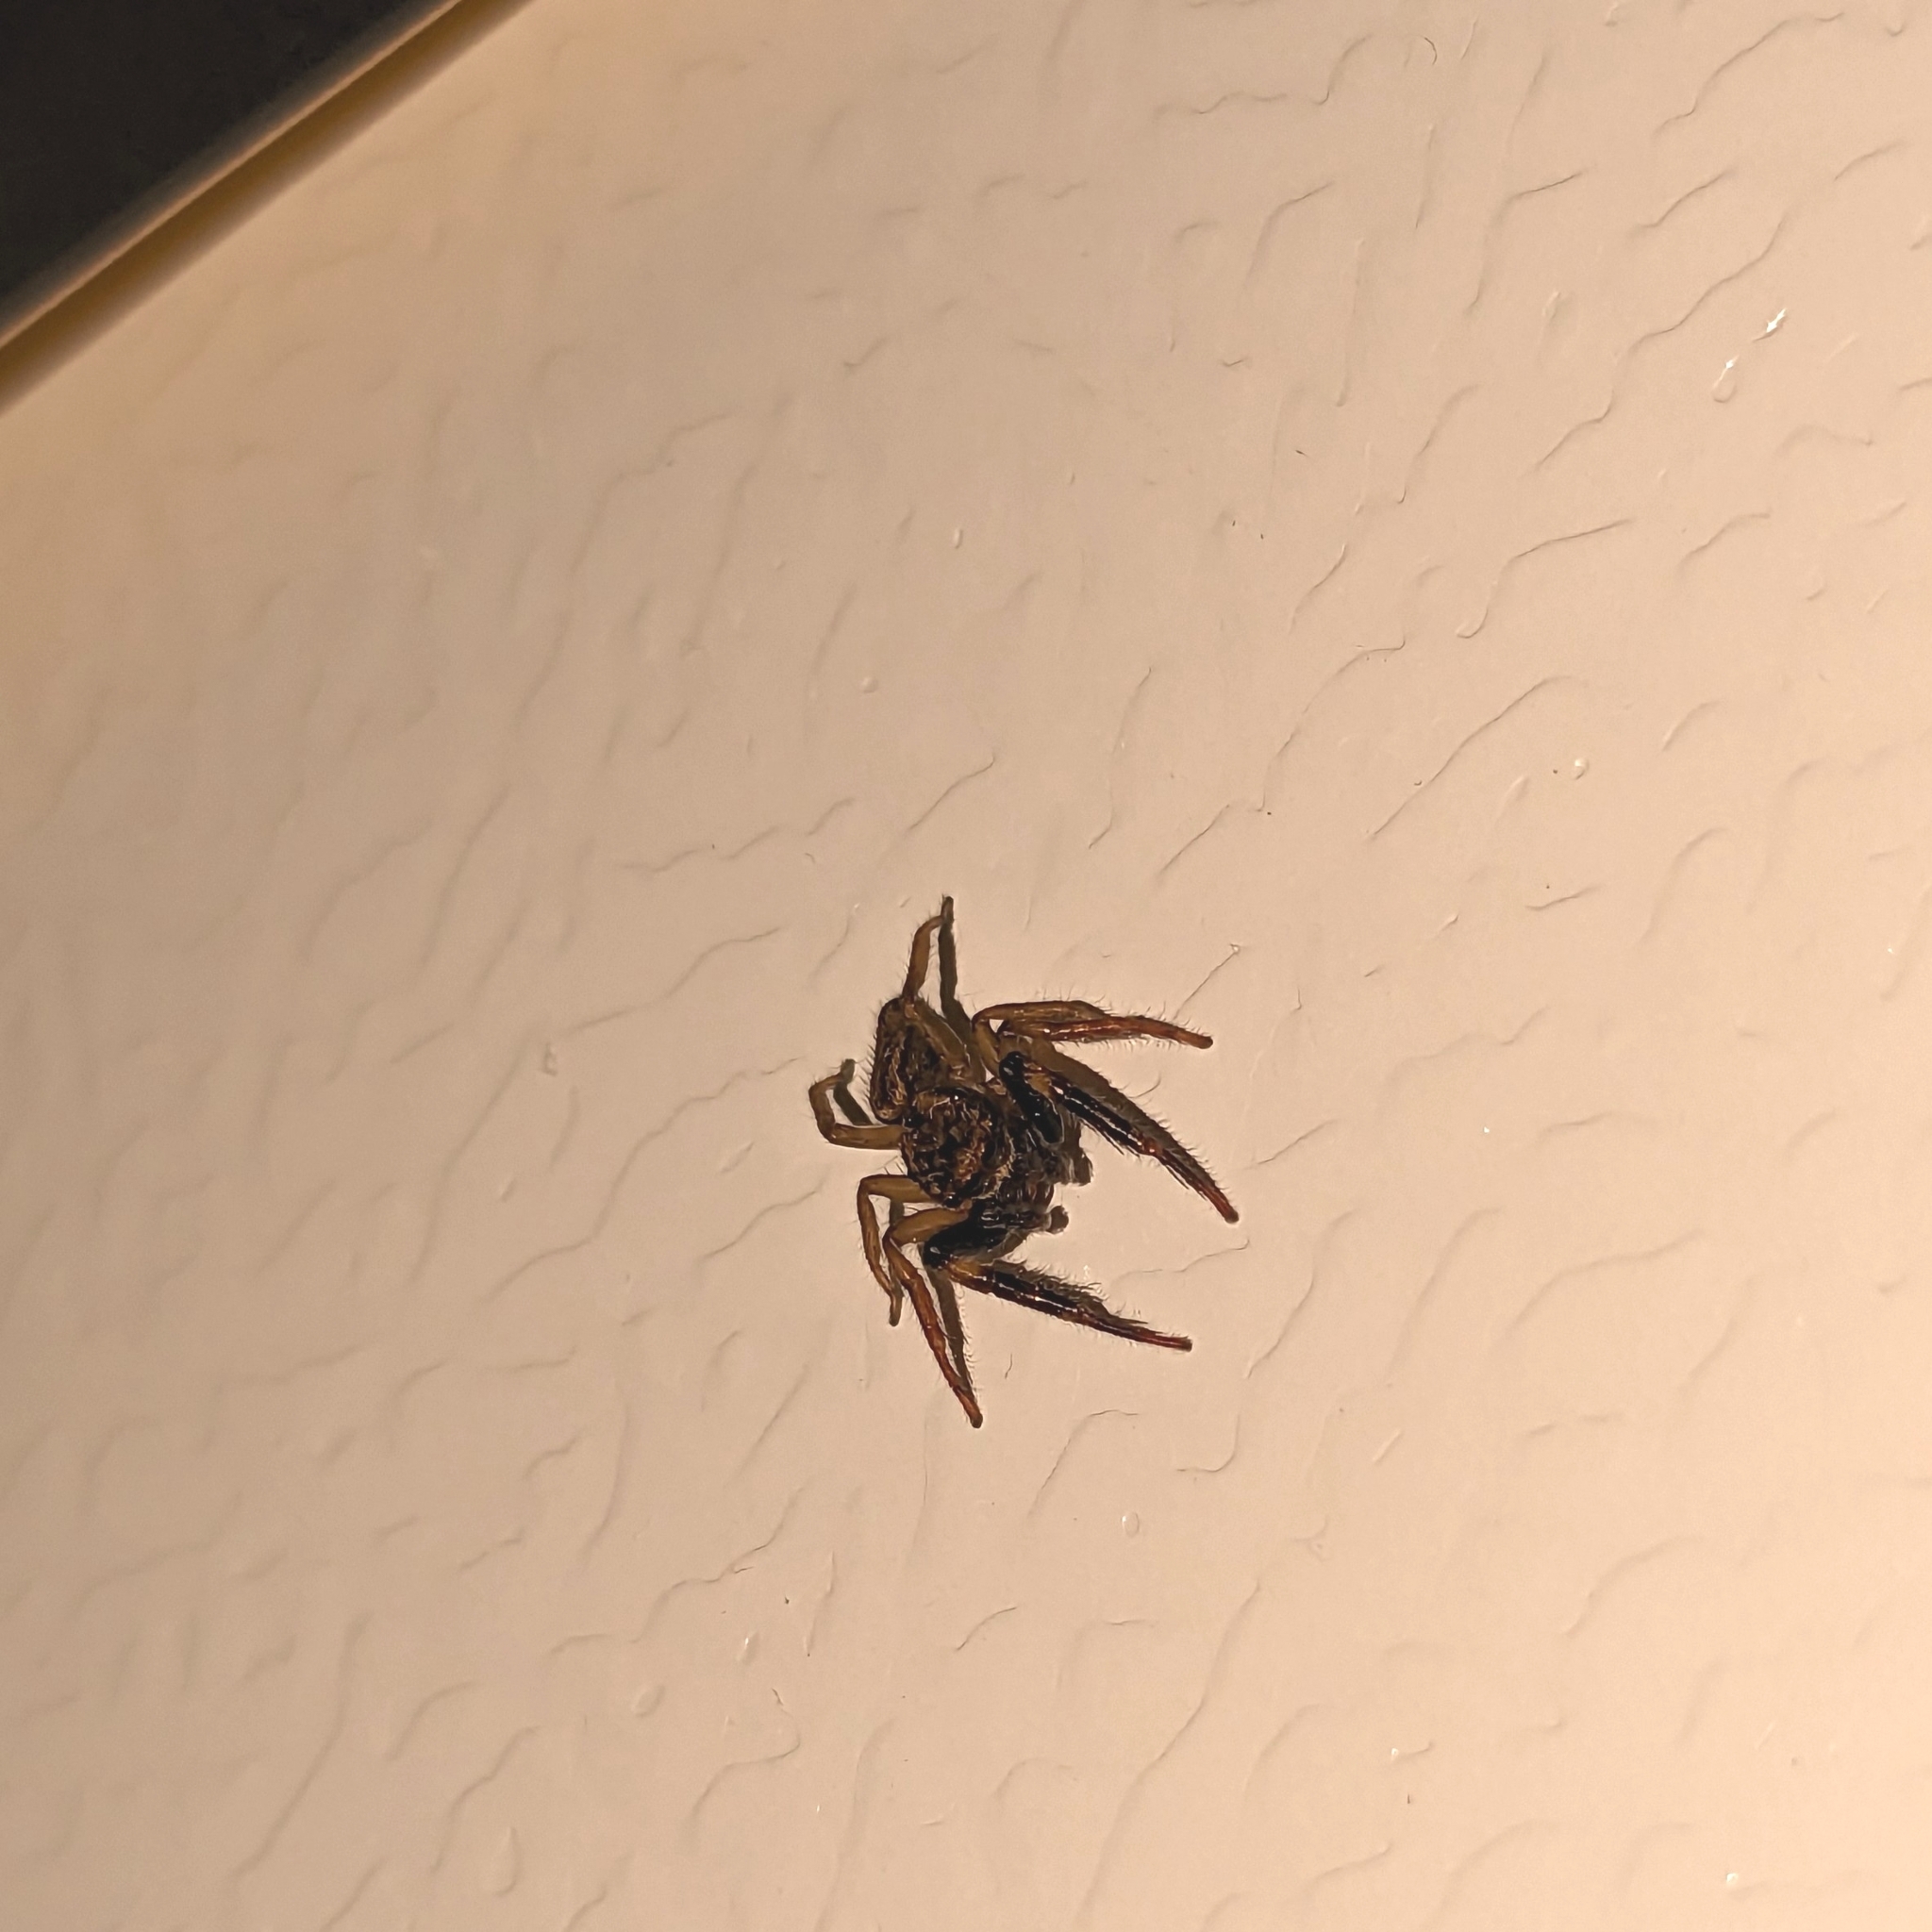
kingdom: Animalia
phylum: Arthropoda
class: Arachnida
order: Araneae
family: Salticidae
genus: Trite
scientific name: Trite auricoma
